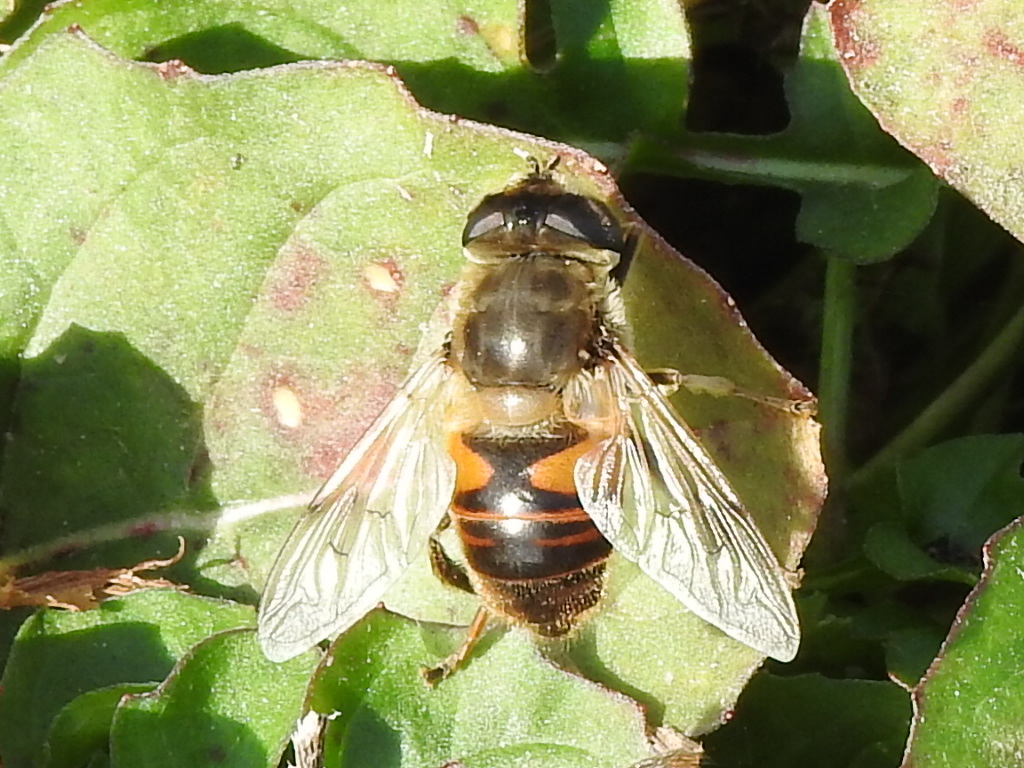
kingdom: Animalia
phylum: Arthropoda
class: Insecta
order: Diptera
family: Syrphidae
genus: Eristalis
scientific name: Eristalis tenax
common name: Drone fly
